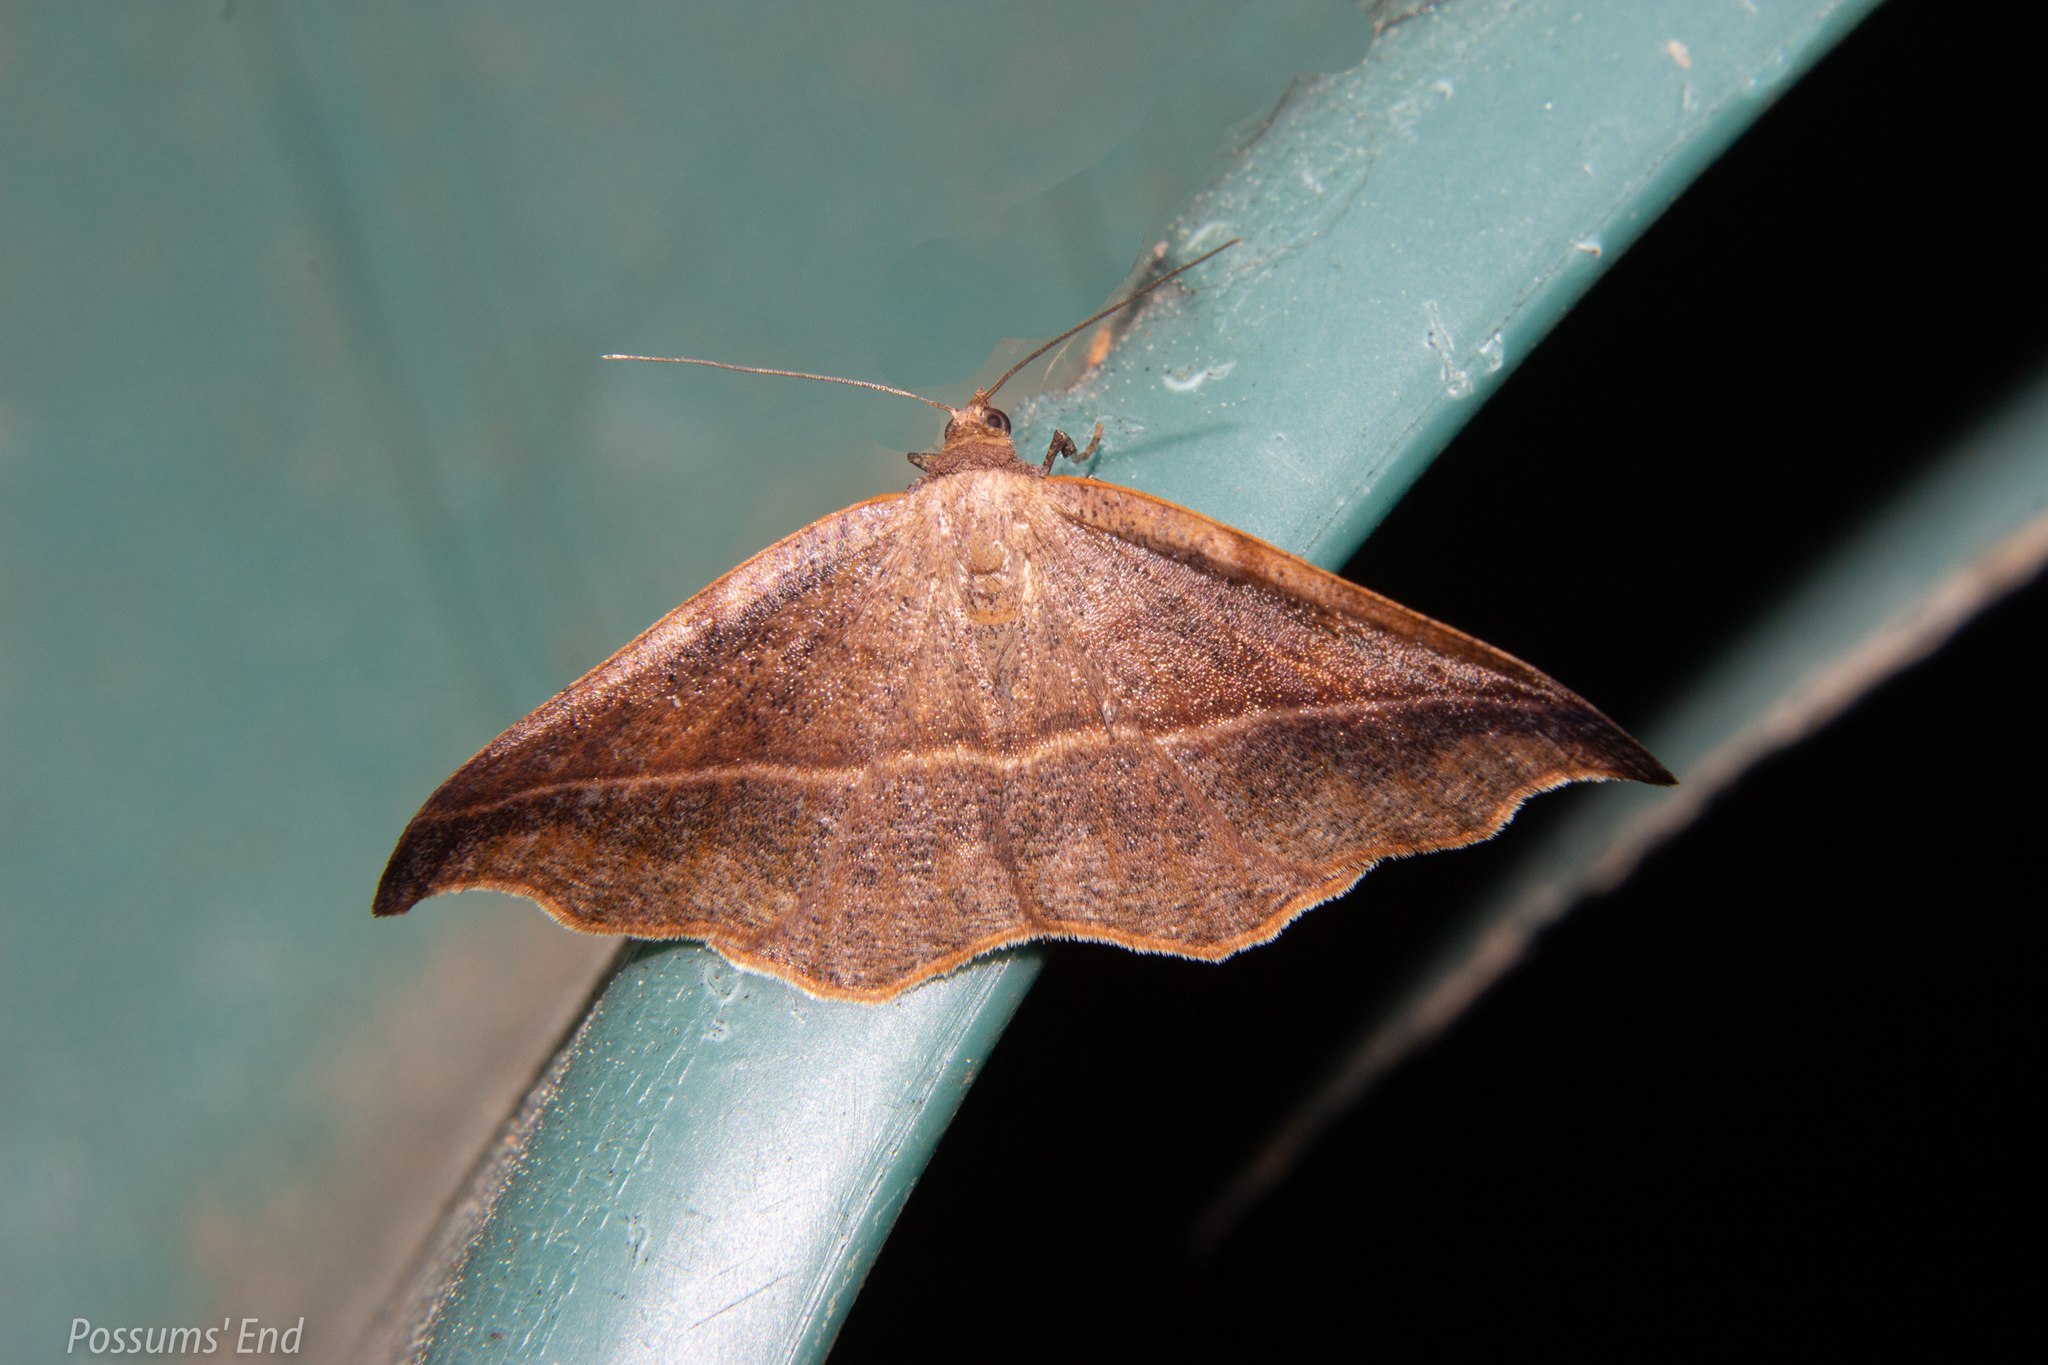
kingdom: Animalia
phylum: Arthropoda
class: Insecta
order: Lepidoptera
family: Geometridae
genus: Sarisa
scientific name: Sarisa muriferata
